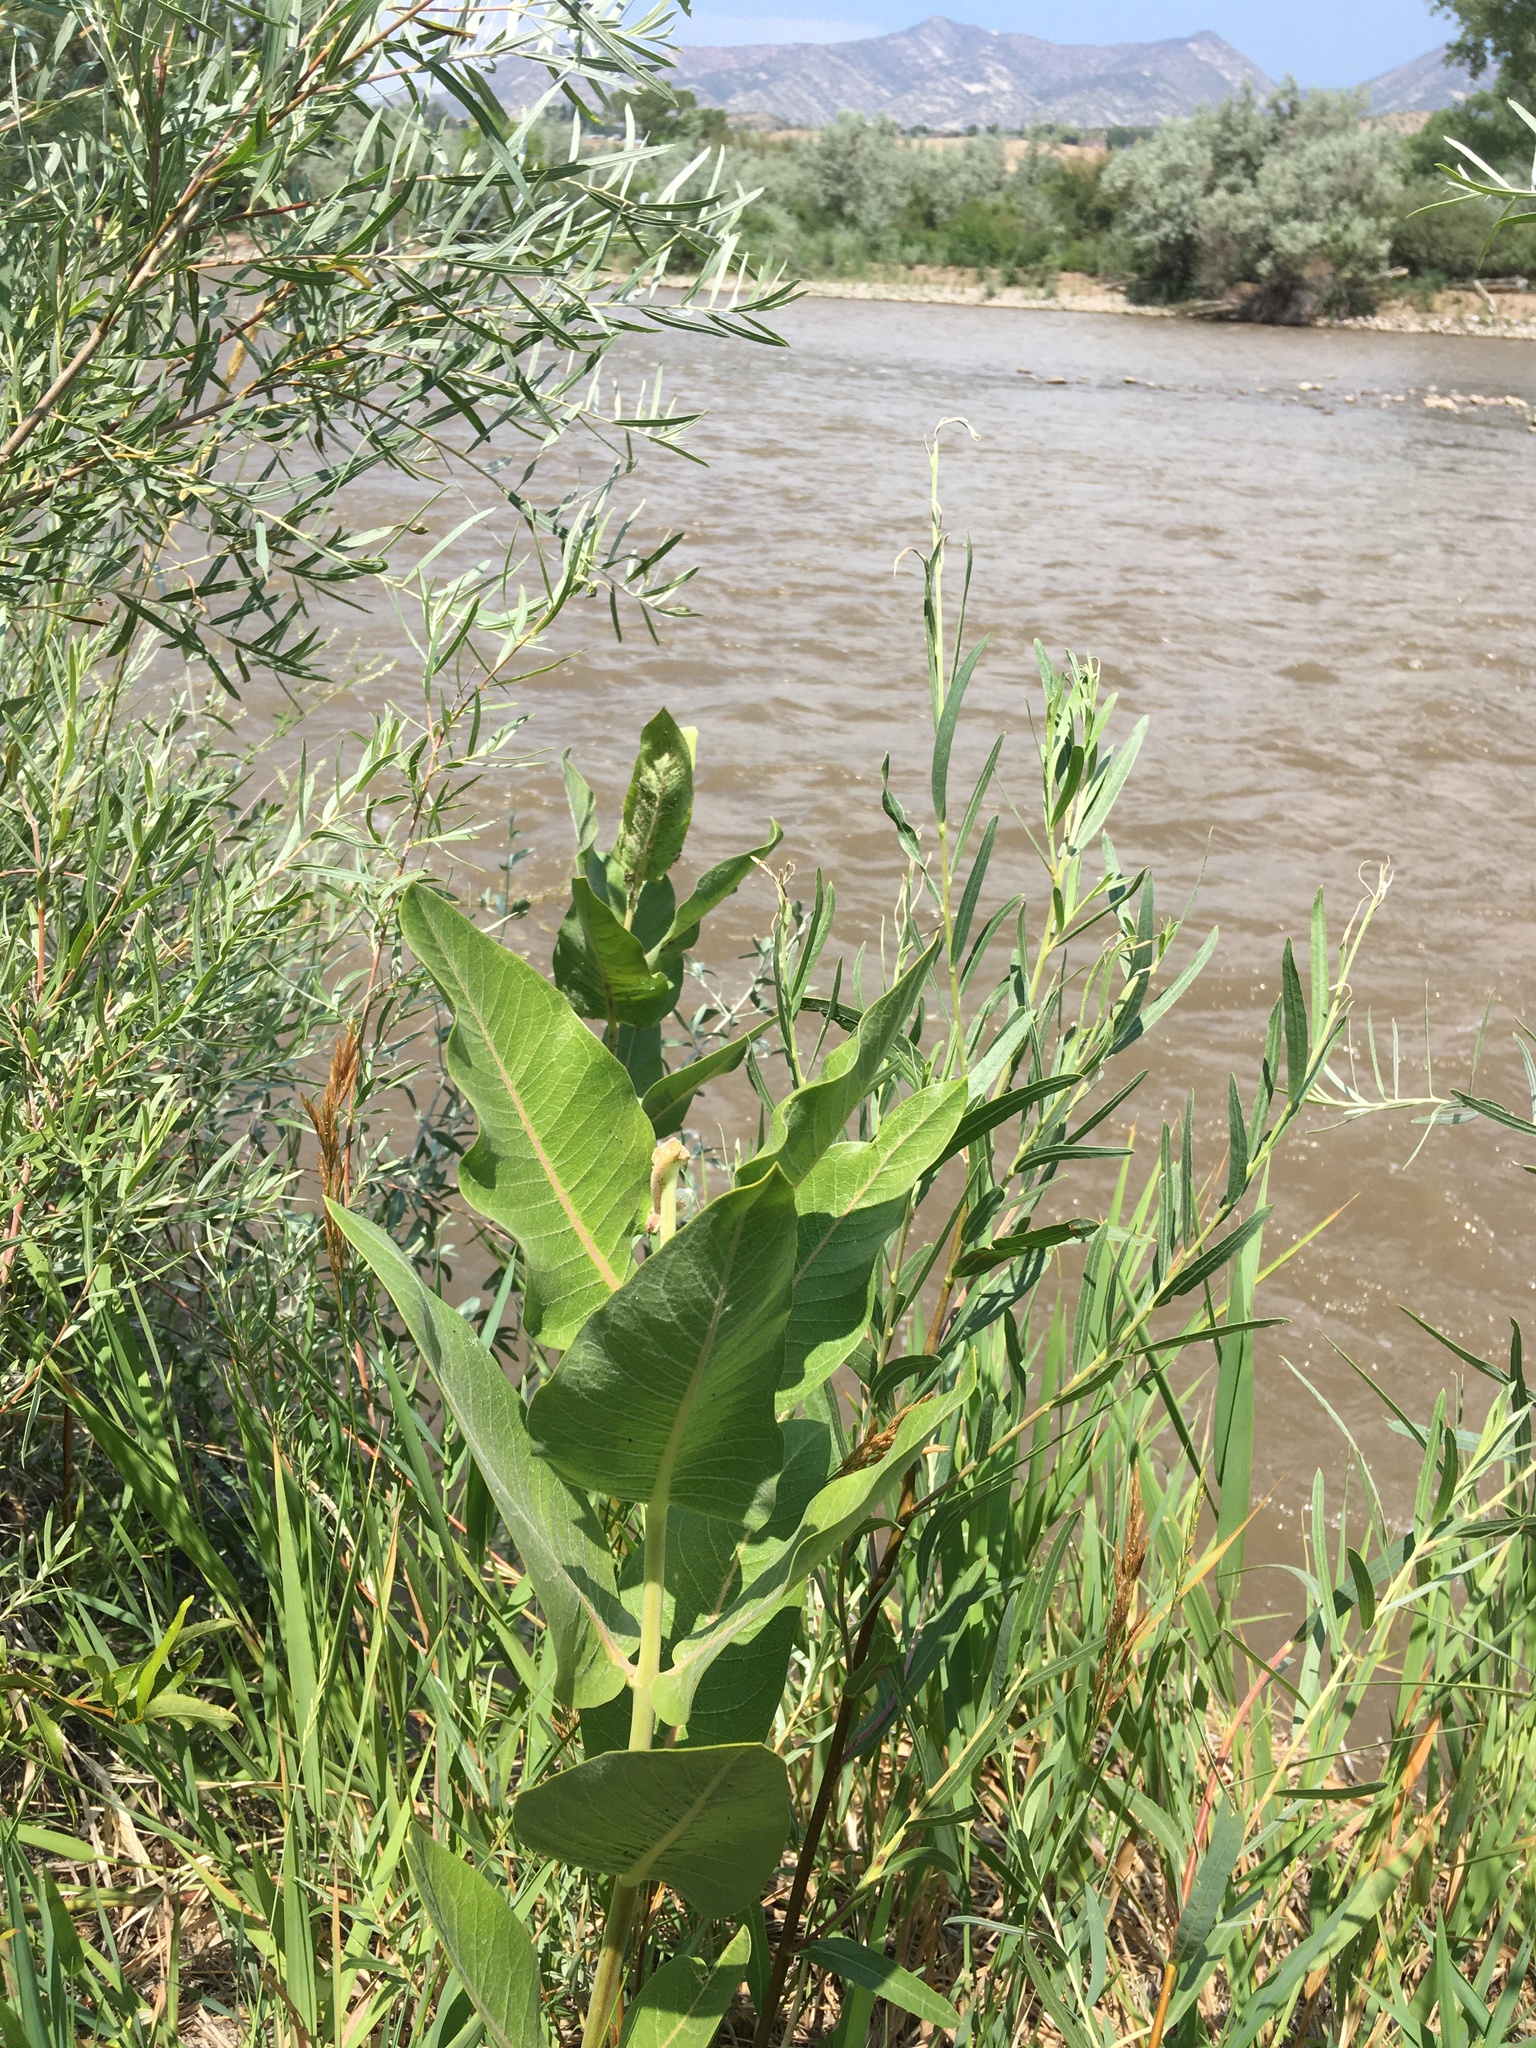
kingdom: Plantae
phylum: Tracheophyta
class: Magnoliopsida
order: Gentianales
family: Apocynaceae
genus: Asclepias
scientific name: Asclepias speciosa
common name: Showy milkweed
